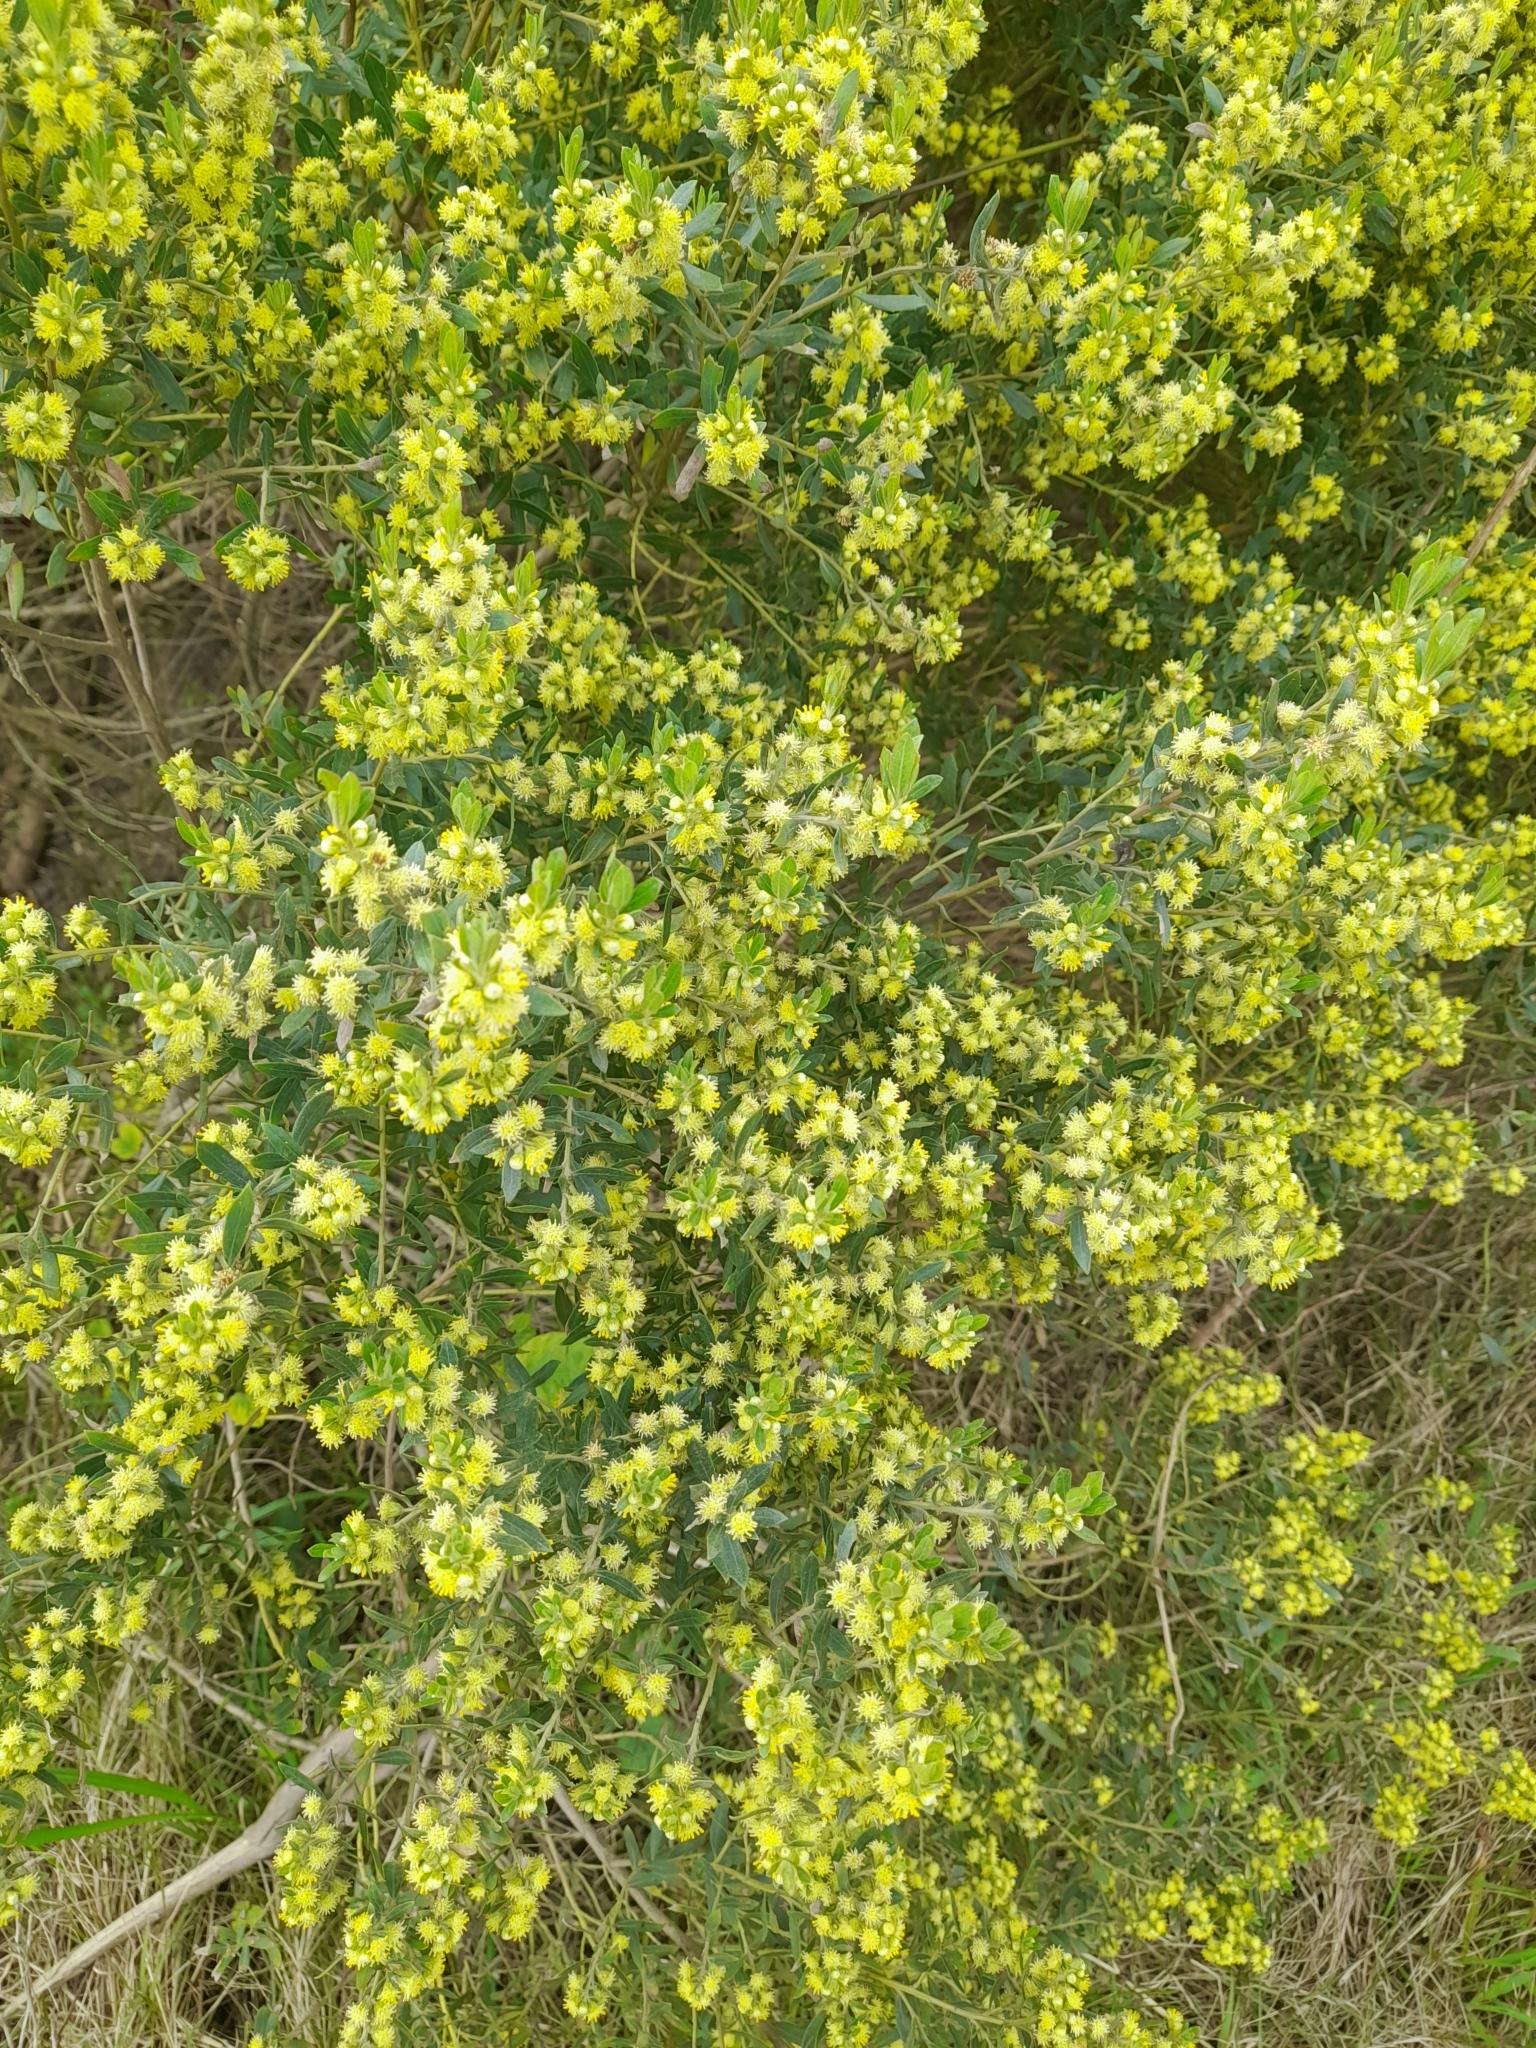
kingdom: Plantae
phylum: Tracheophyta
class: Magnoliopsida
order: Asterales
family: Asteraceae
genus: Baccharis
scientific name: Baccharis dracunculifolia
